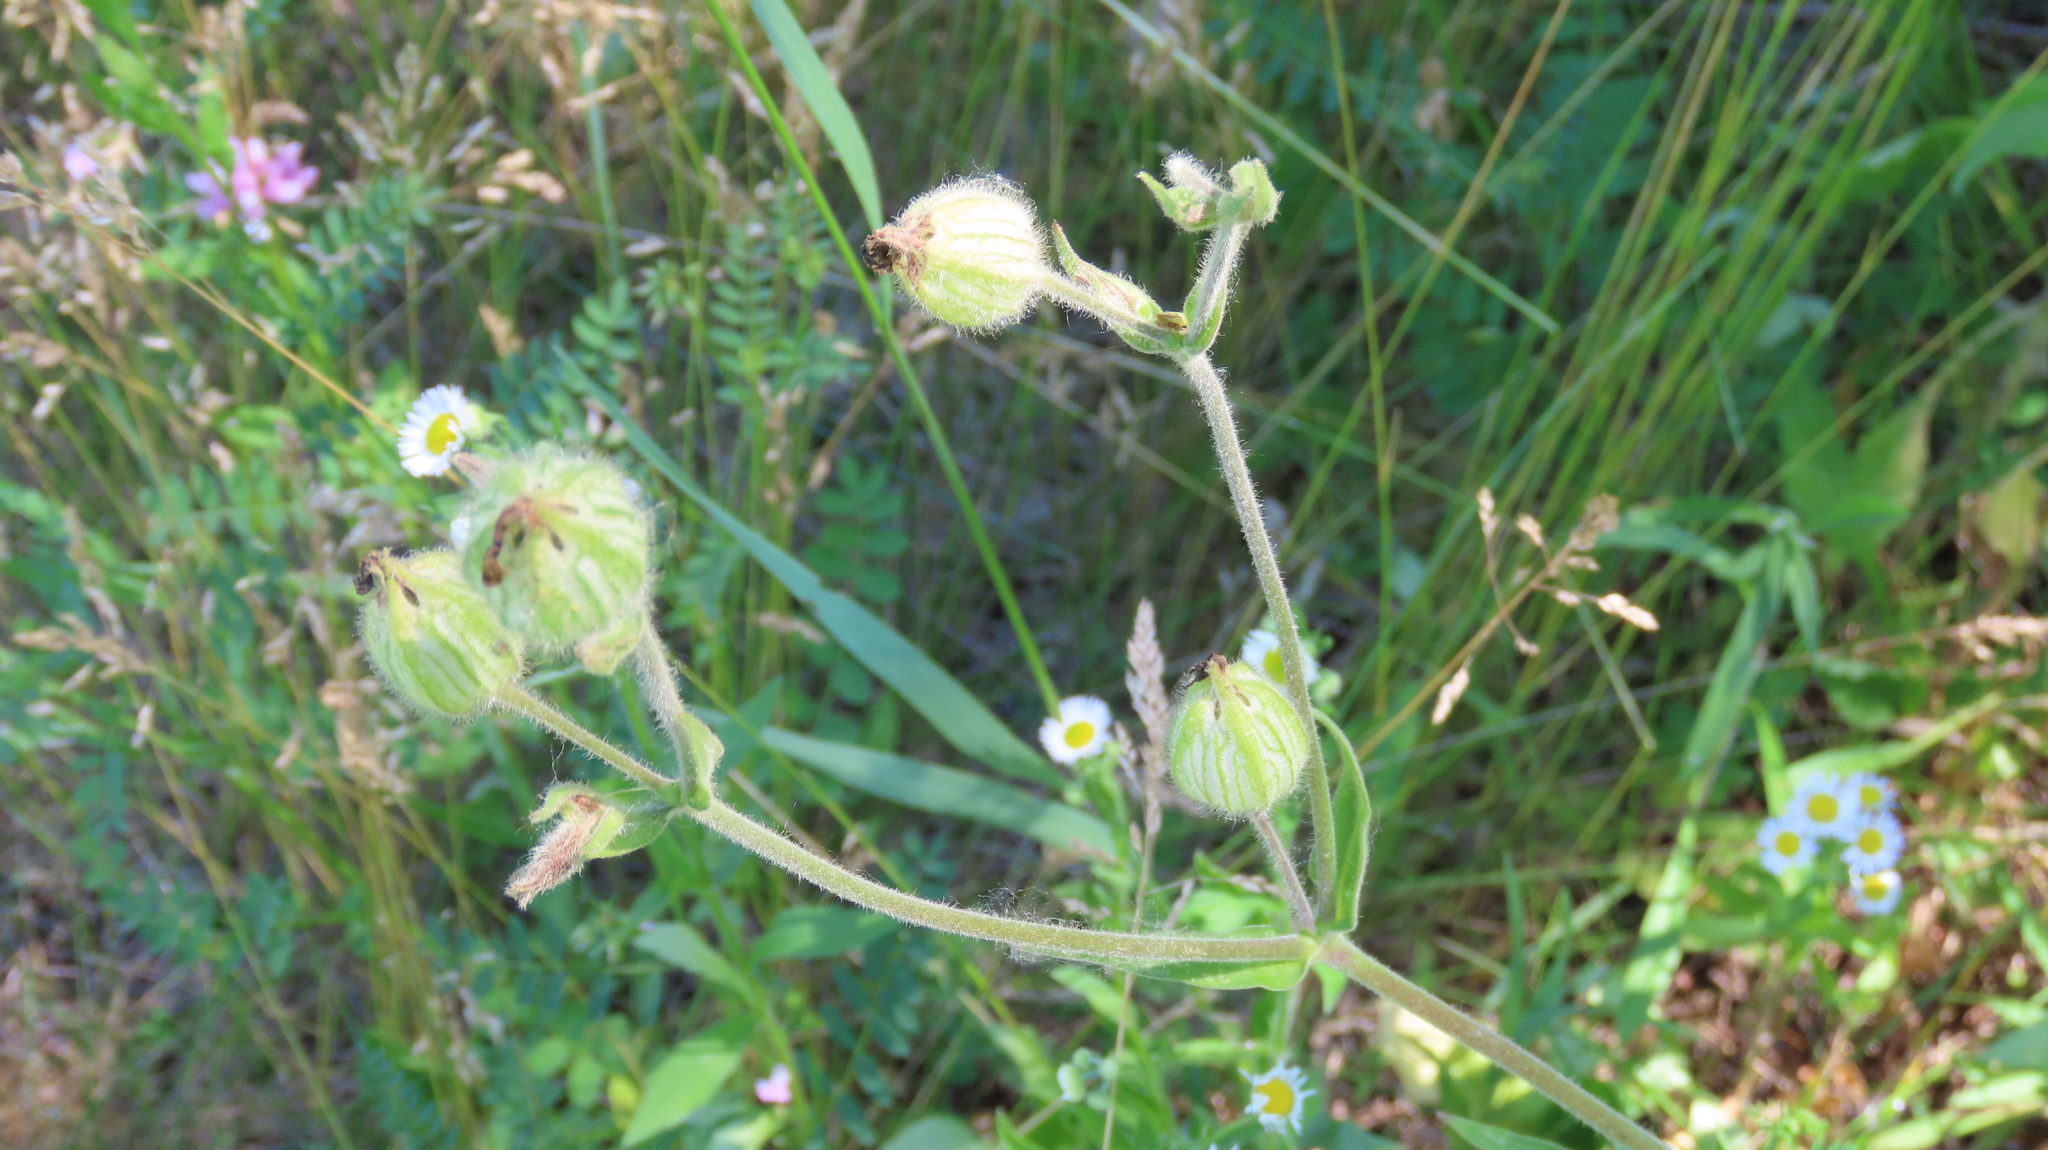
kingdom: Plantae
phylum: Tracheophyta
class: Magnoliopsida
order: Caryophyllales
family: Caryophyllaceae
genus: Silene
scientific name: Silene latifolia
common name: White campion
